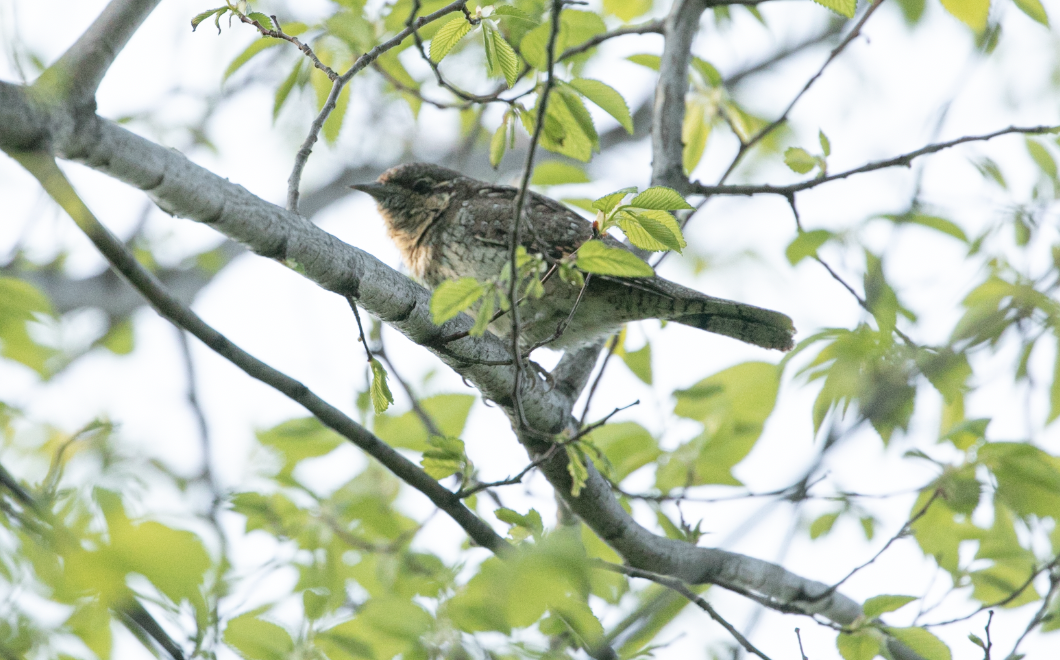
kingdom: Animalia
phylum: Chordata
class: Aves
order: Piciformes
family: Picidae
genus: Jynx
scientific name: Jynx torquilla
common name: Eurasian wryneck
